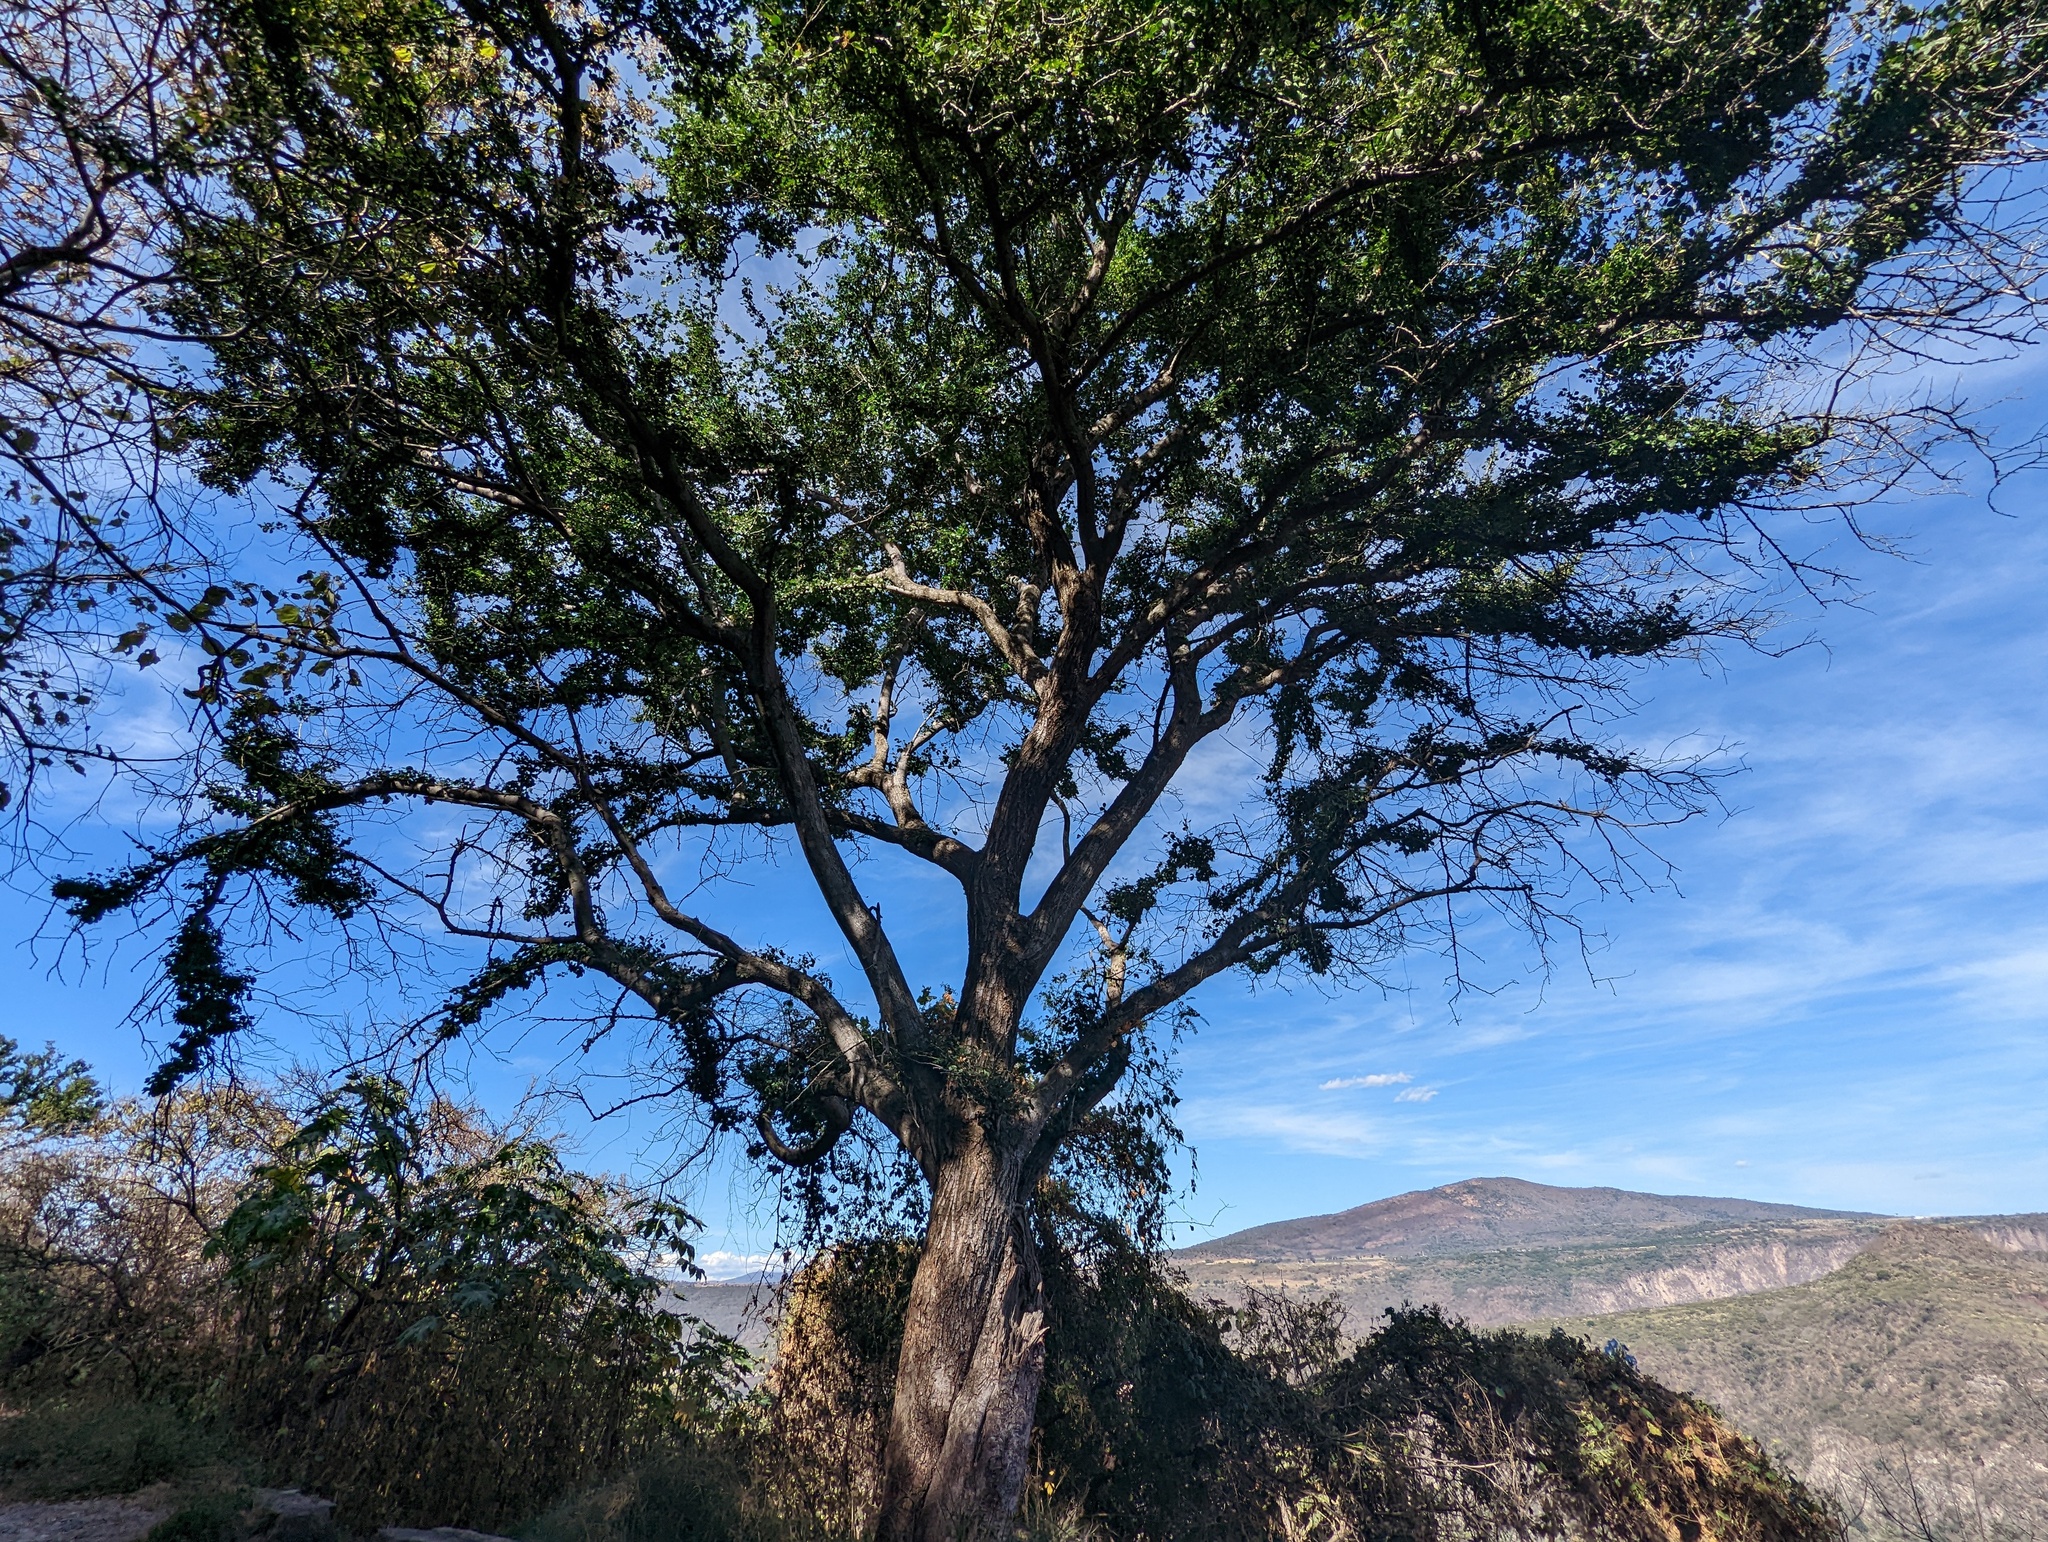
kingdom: Plantae
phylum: Tracheophyta
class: Magnoliopsida
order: Fabales
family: Fabaceae
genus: Pithecellobium
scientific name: Pithecellobium dulce
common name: Monkeypod
